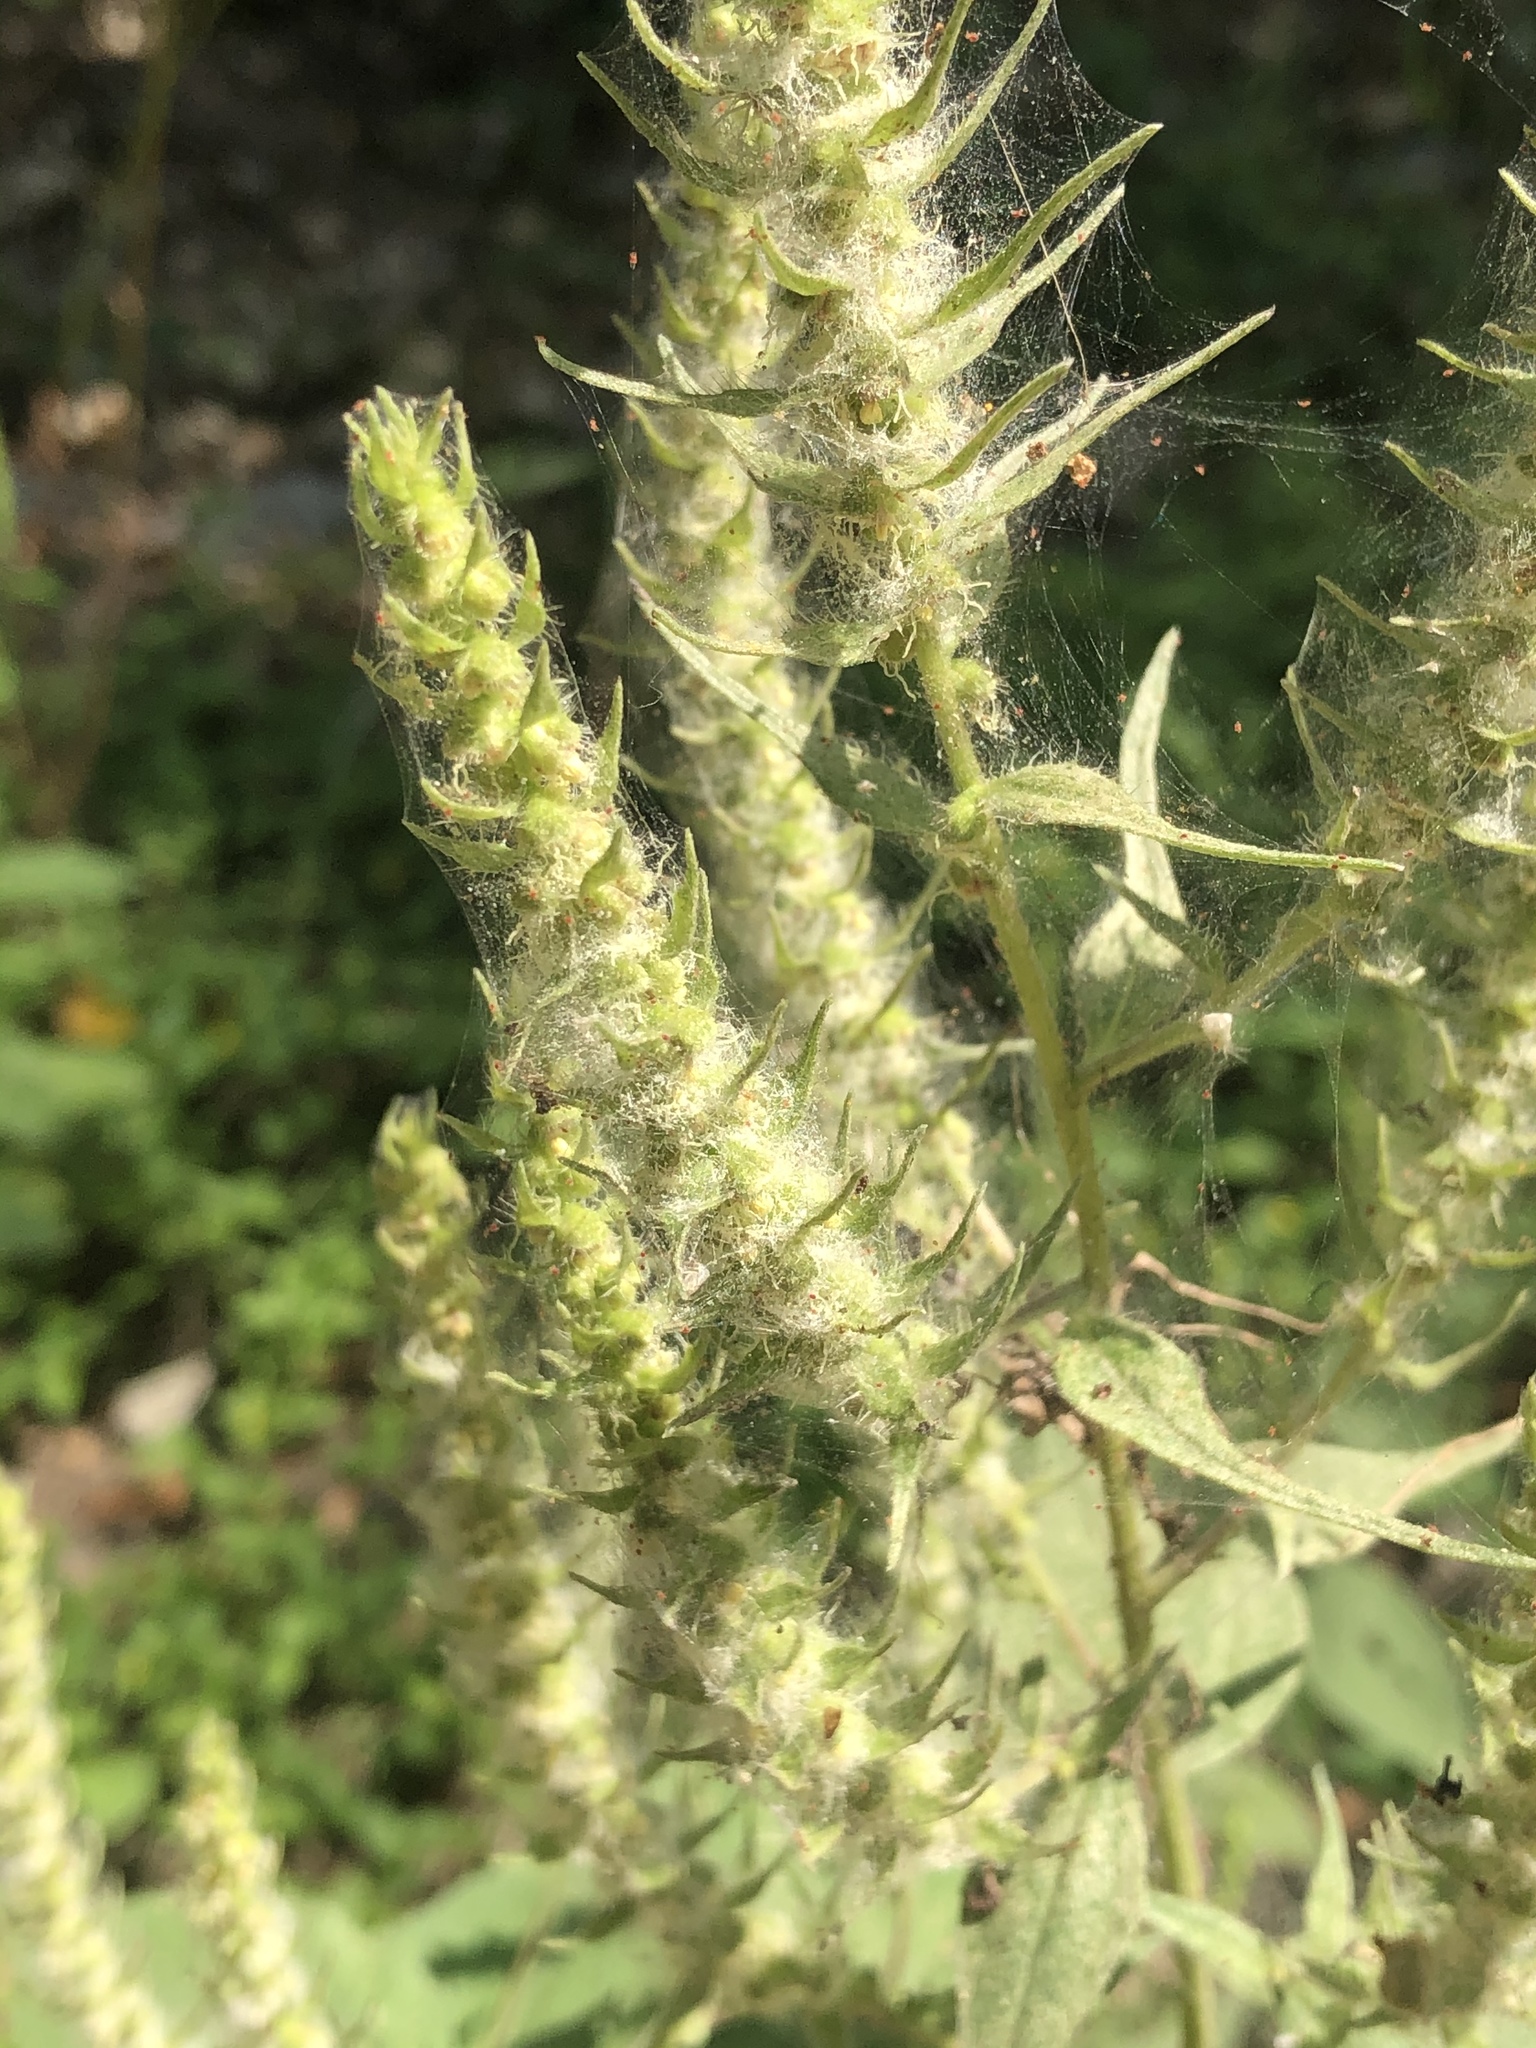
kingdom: Plantae
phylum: Tracheophyta
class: Magnoliopsida
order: Asterales
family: Asteraceae
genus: Iva
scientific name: Iva annua
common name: Marsh-elder
